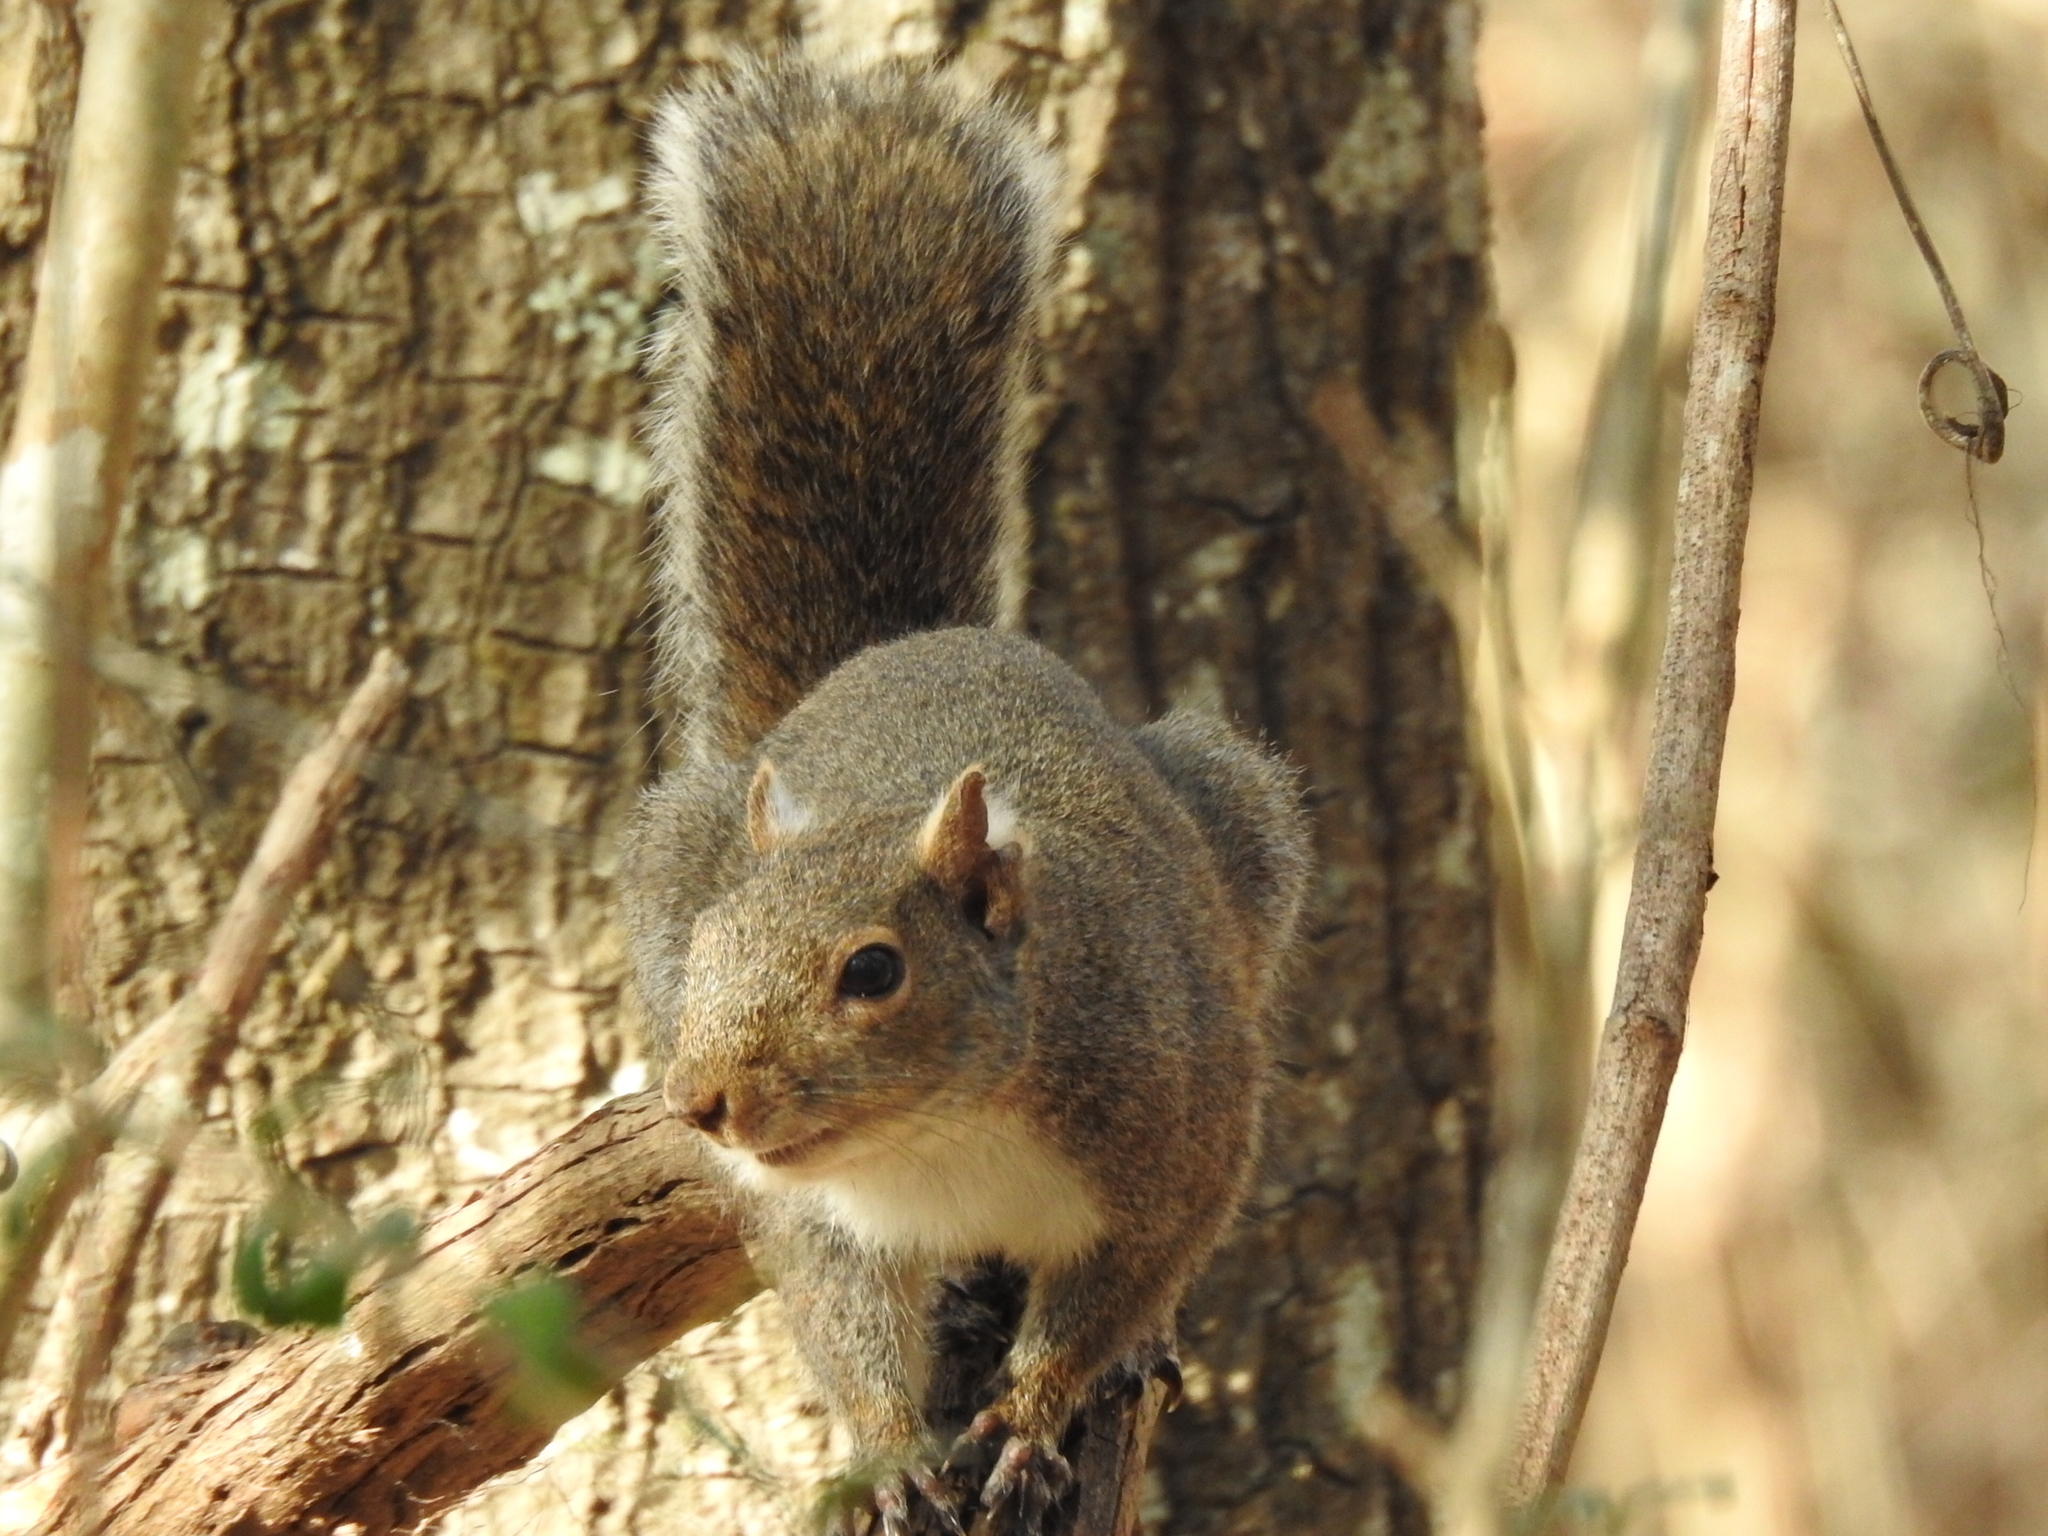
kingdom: Animalia
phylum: Chordata
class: Mammalia
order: Rodentia
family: Sciuridae
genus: Sciurus
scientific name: Sciurus carolinensis
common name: Eastern gray squirrel
